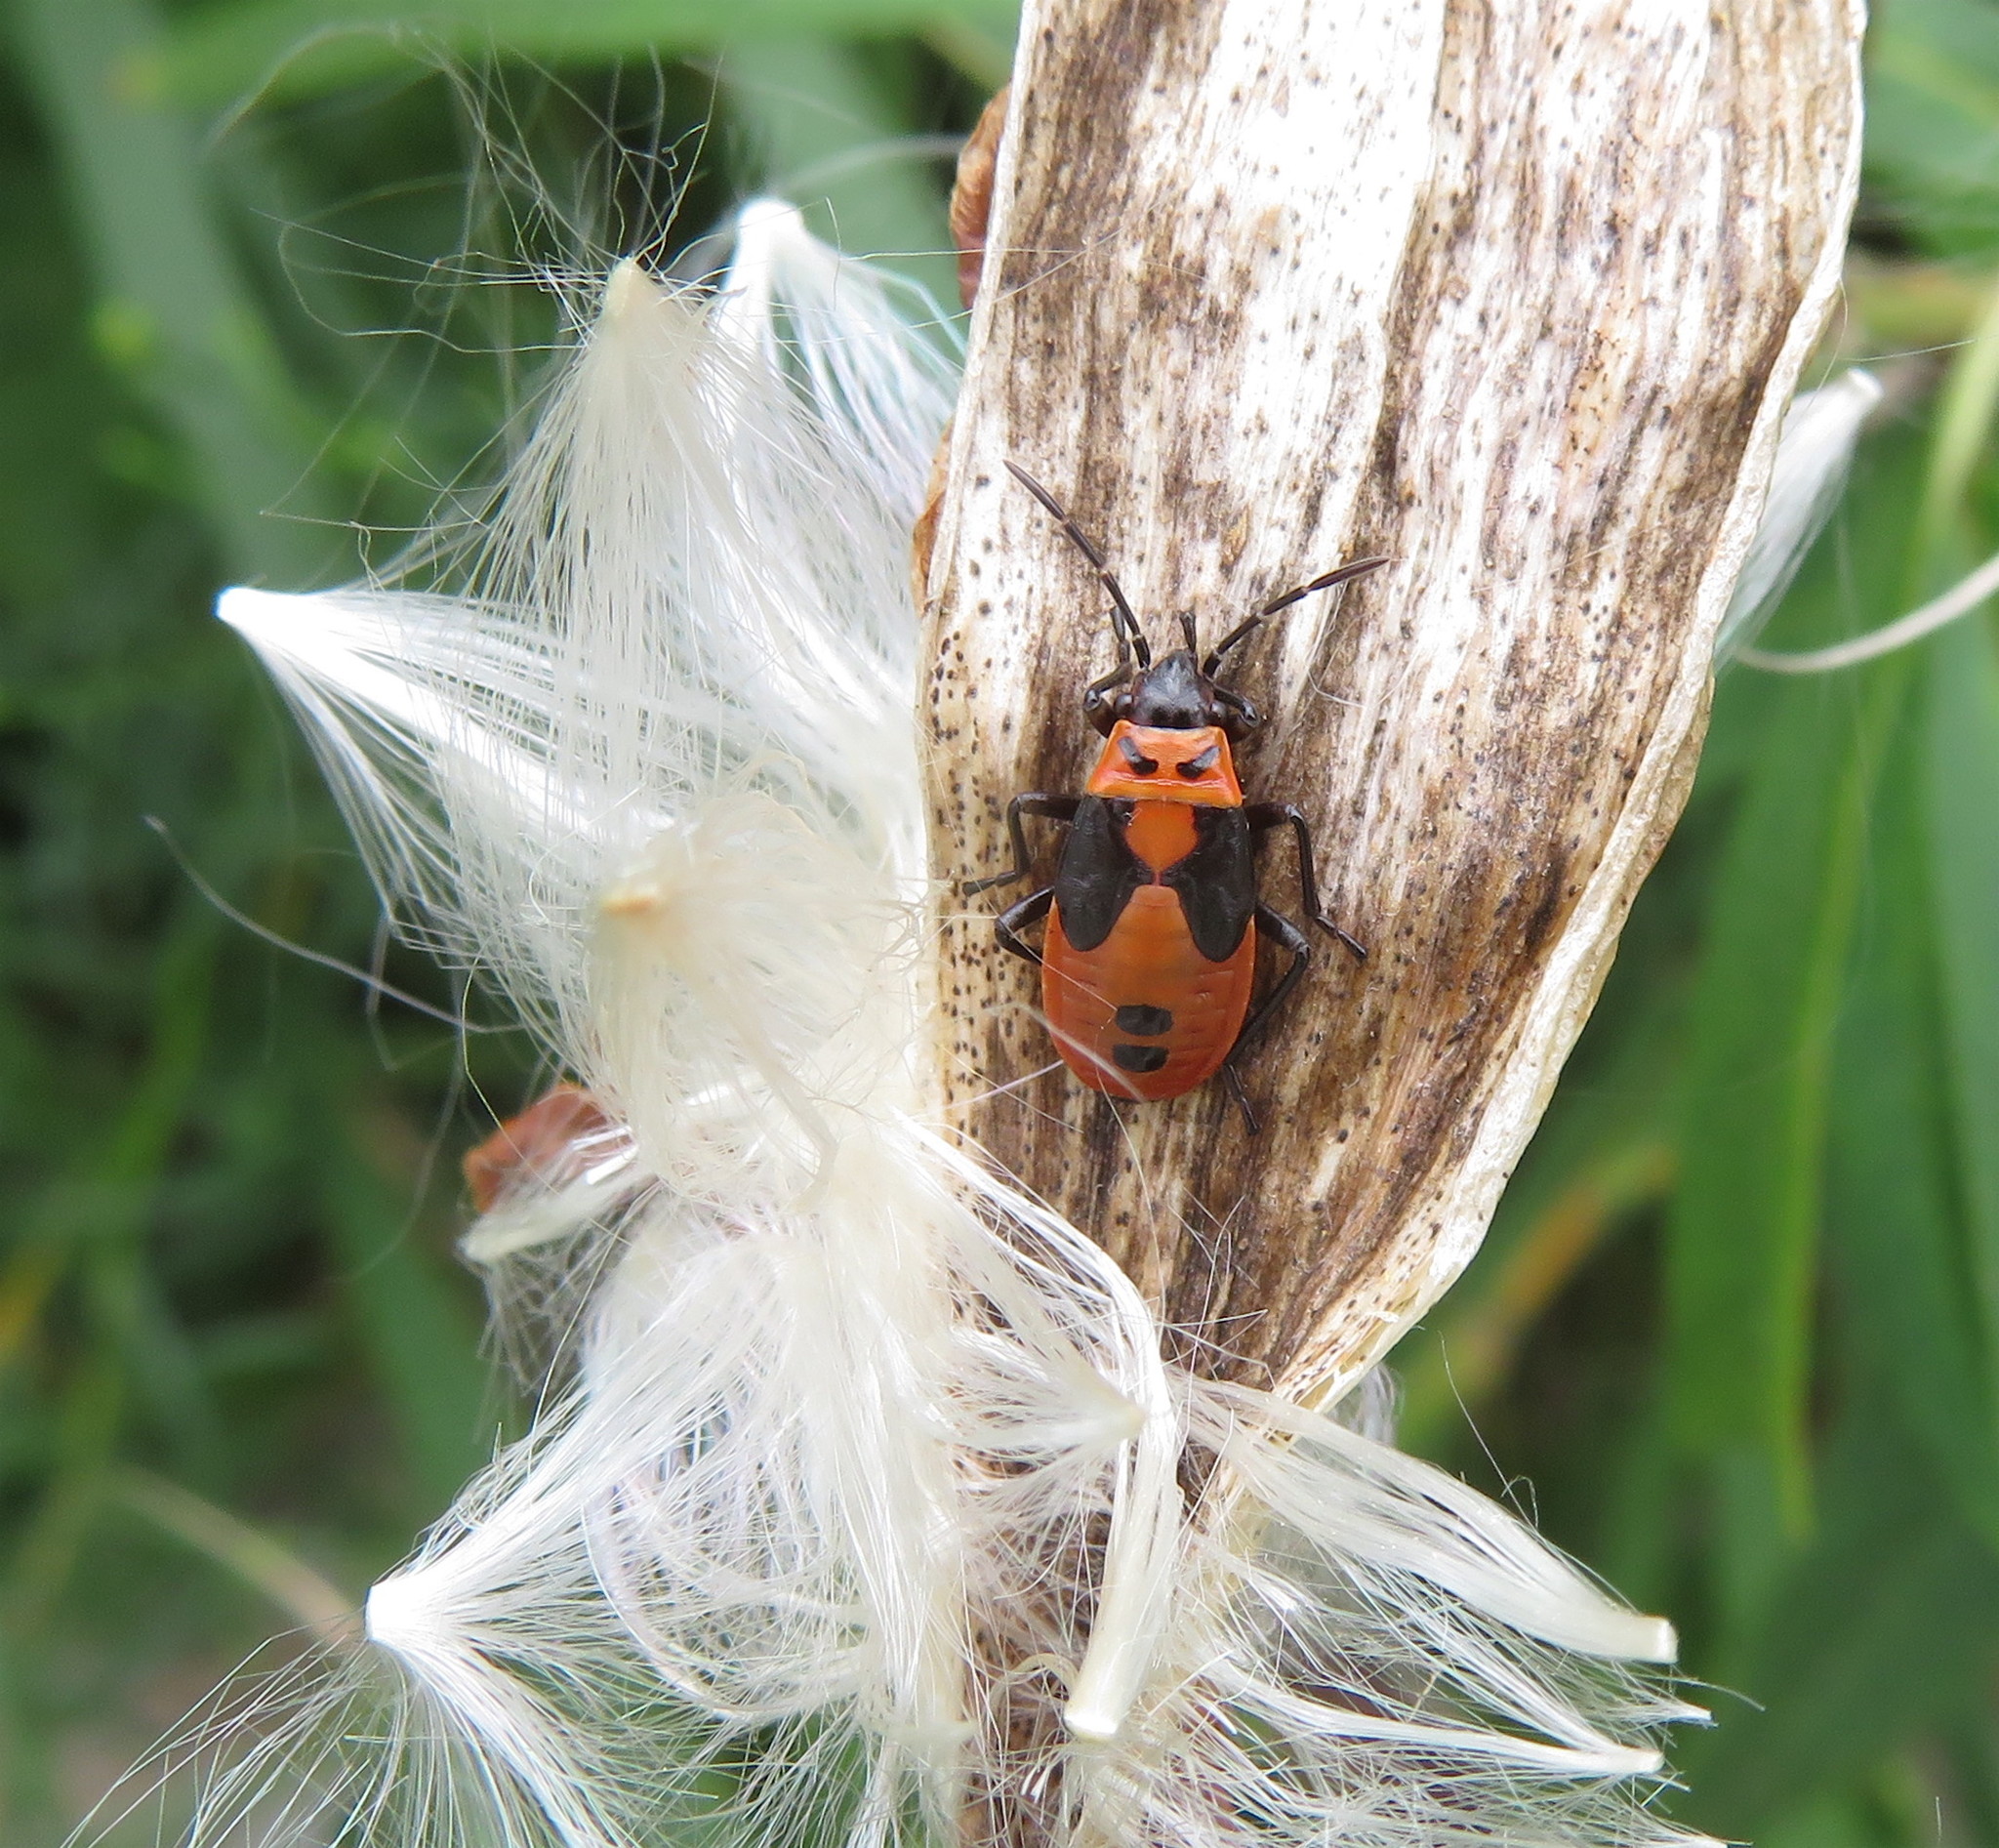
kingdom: Animalia
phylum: Arthropoda
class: Insecta
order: Hemiptera
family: Lygaeidae
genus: Lygaeus
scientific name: Lygaeus turcicus
